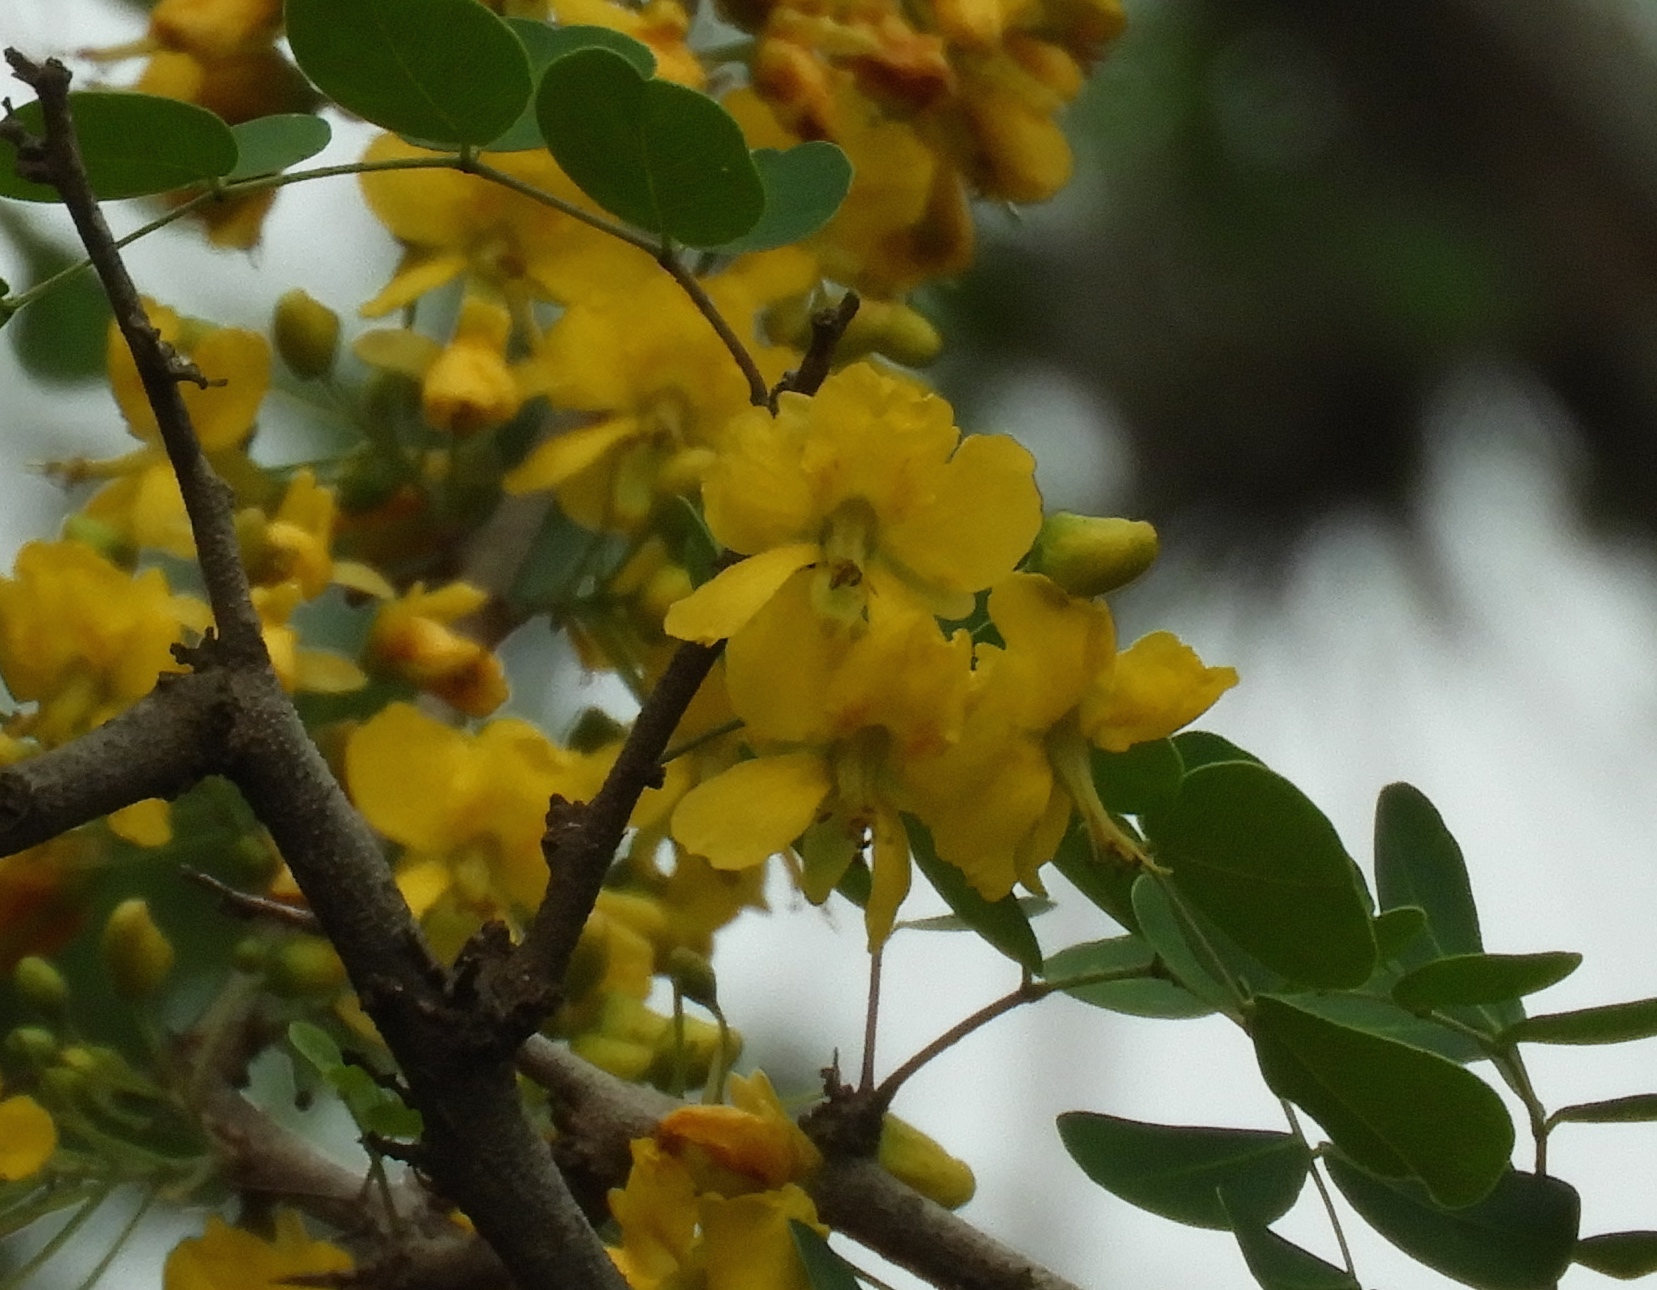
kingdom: Plantae
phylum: Tracheophyta
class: Magnoliopsida
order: Fabales
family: Fabaceae
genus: Haematoxylum
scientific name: Haematoxylum brasiletto
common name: Peachwood
